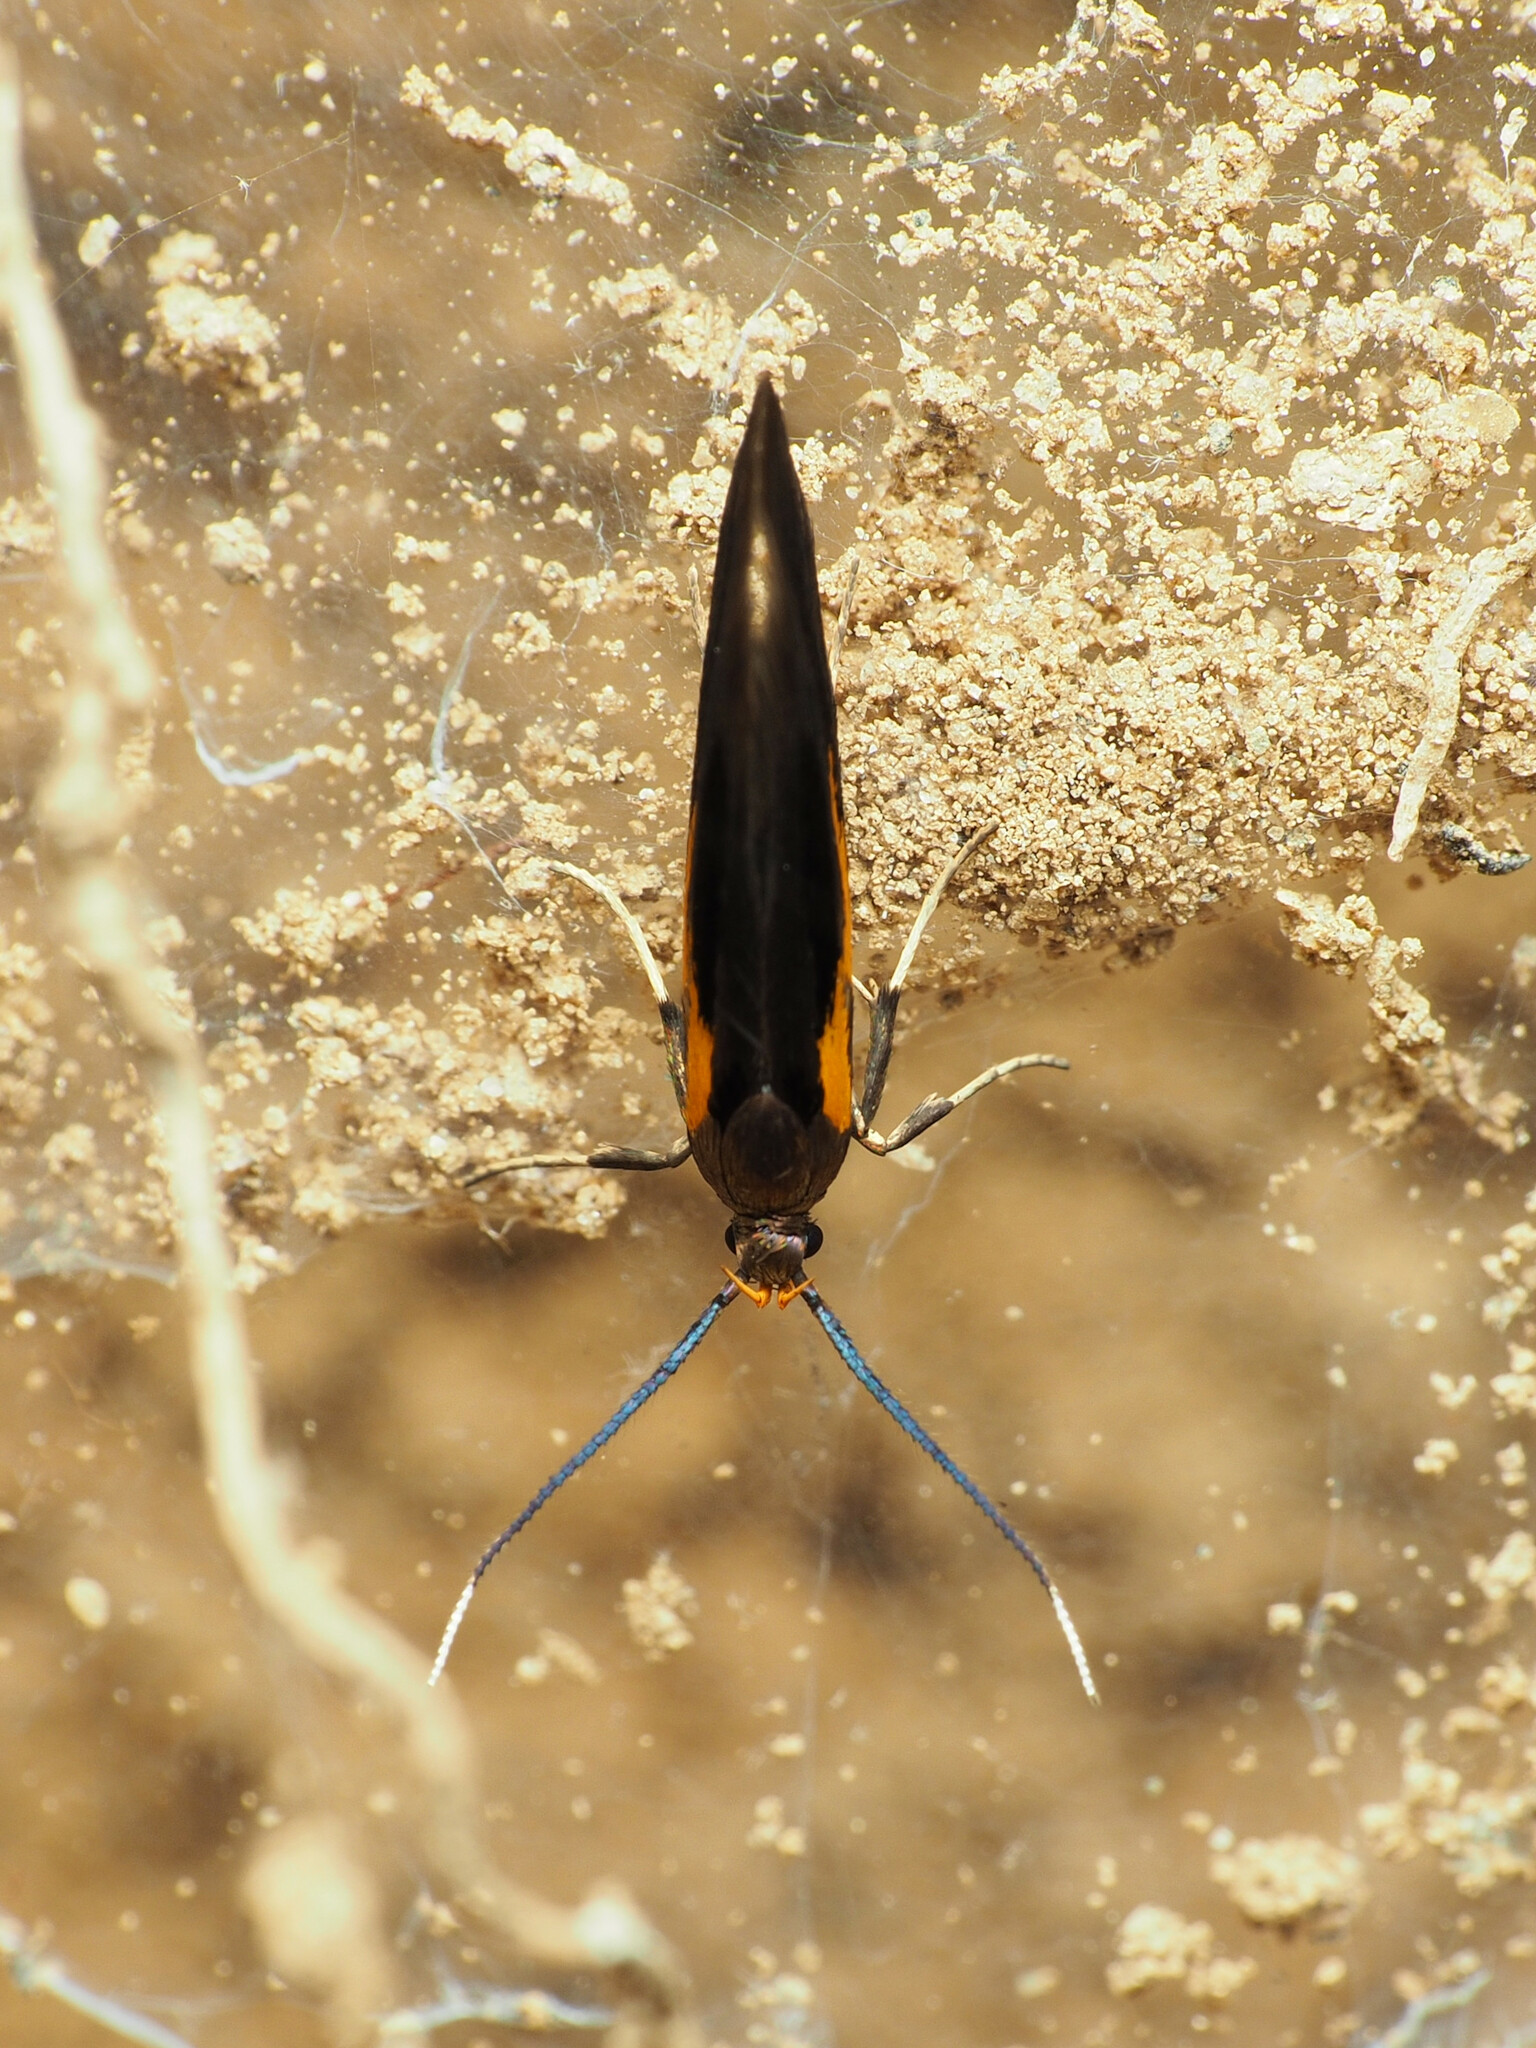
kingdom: Animalia
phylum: Arthropoda
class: Insecta
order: Lepidoptera
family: Oecophoridae
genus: Mathildana
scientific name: Mathildana newmanella
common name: Newman's mathildana moth
